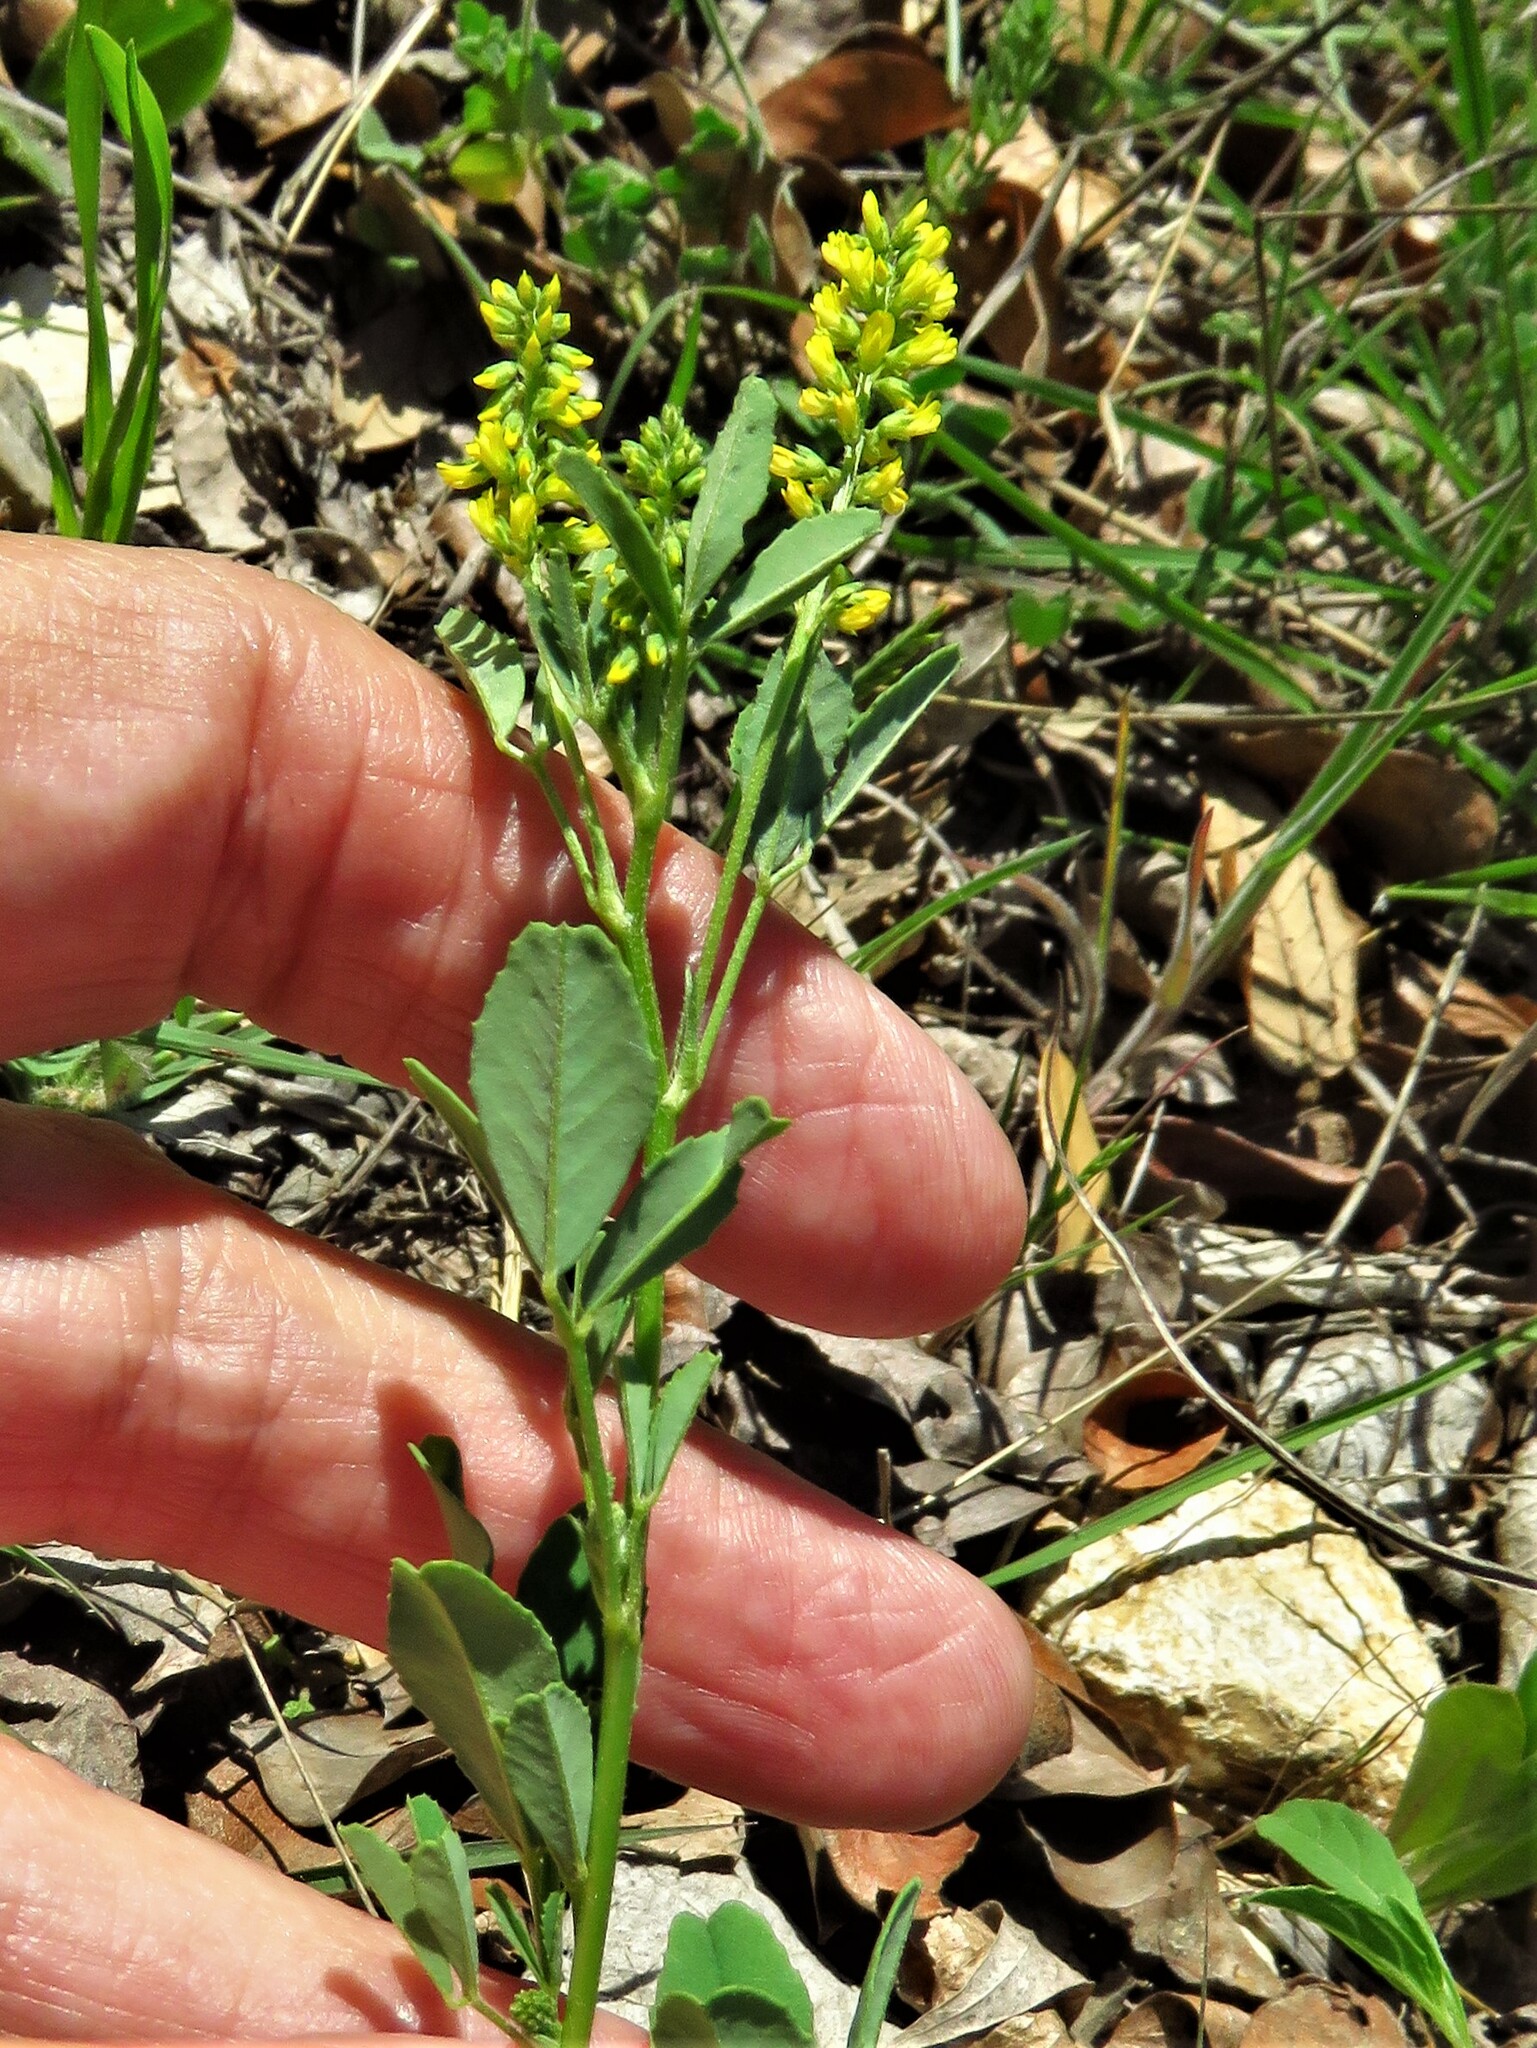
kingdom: Plantae
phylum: Tracheophyta
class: Magnoliopsida
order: Fabales
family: Fabaceae
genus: Melilotus
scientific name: Melilotus indicus
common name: Small melilot
